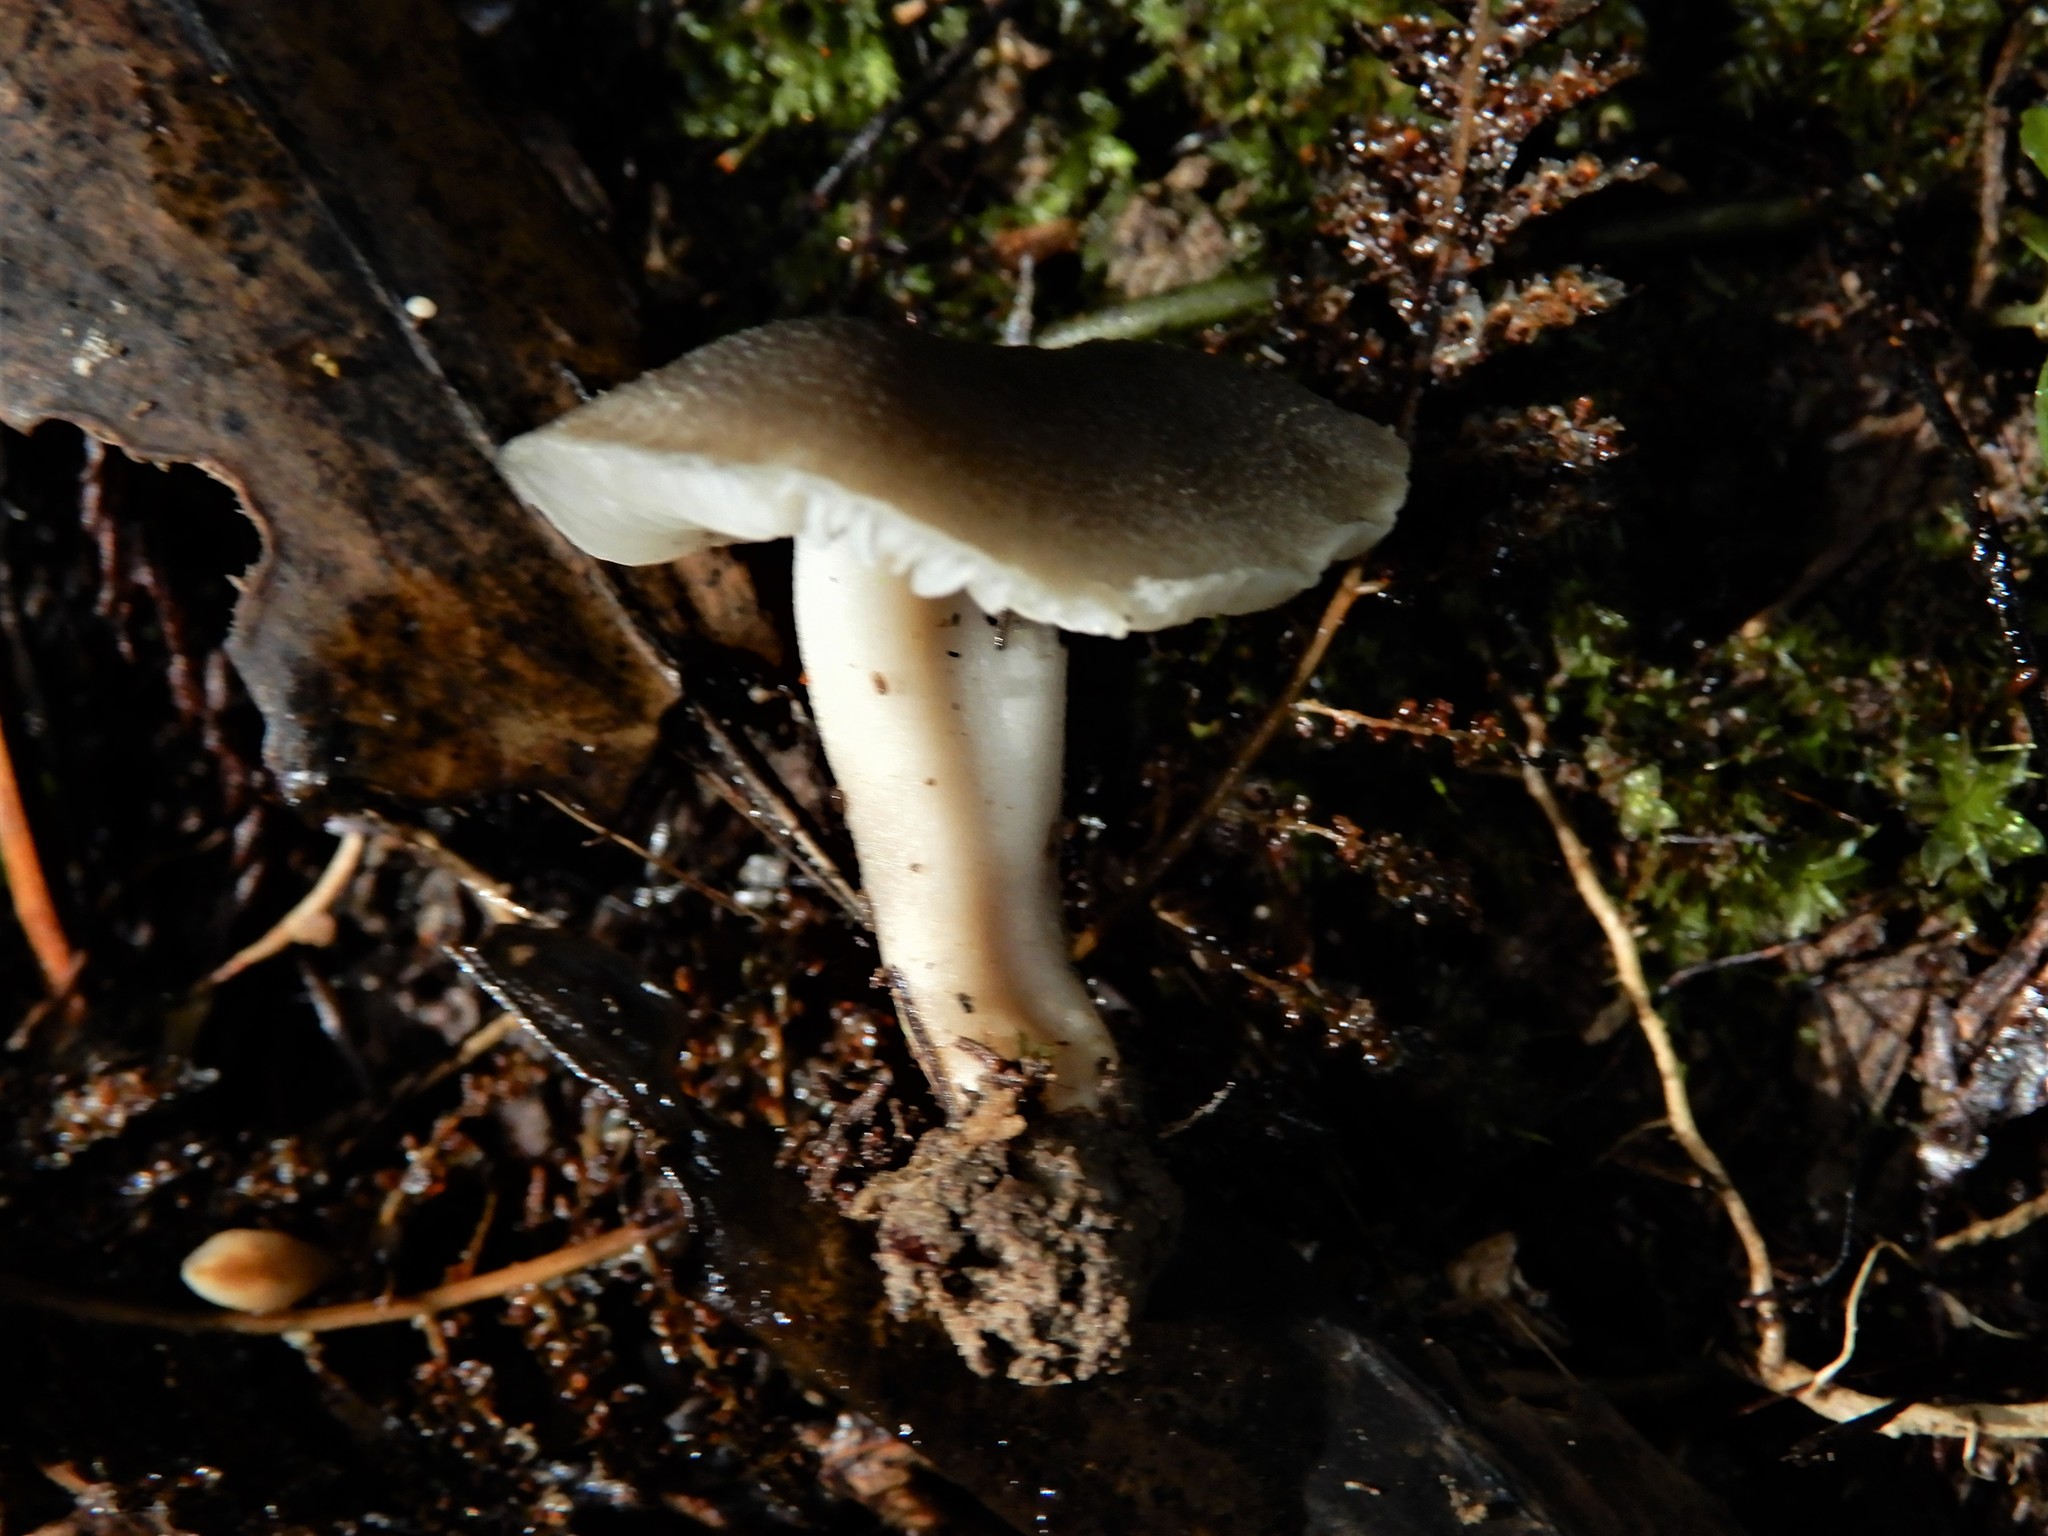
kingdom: Fungi
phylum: Basidiomycota
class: Agaricomycetes
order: Agaricales
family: Clavariaceae
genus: Camarophyllopsis
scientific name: Camarophyllopsis
